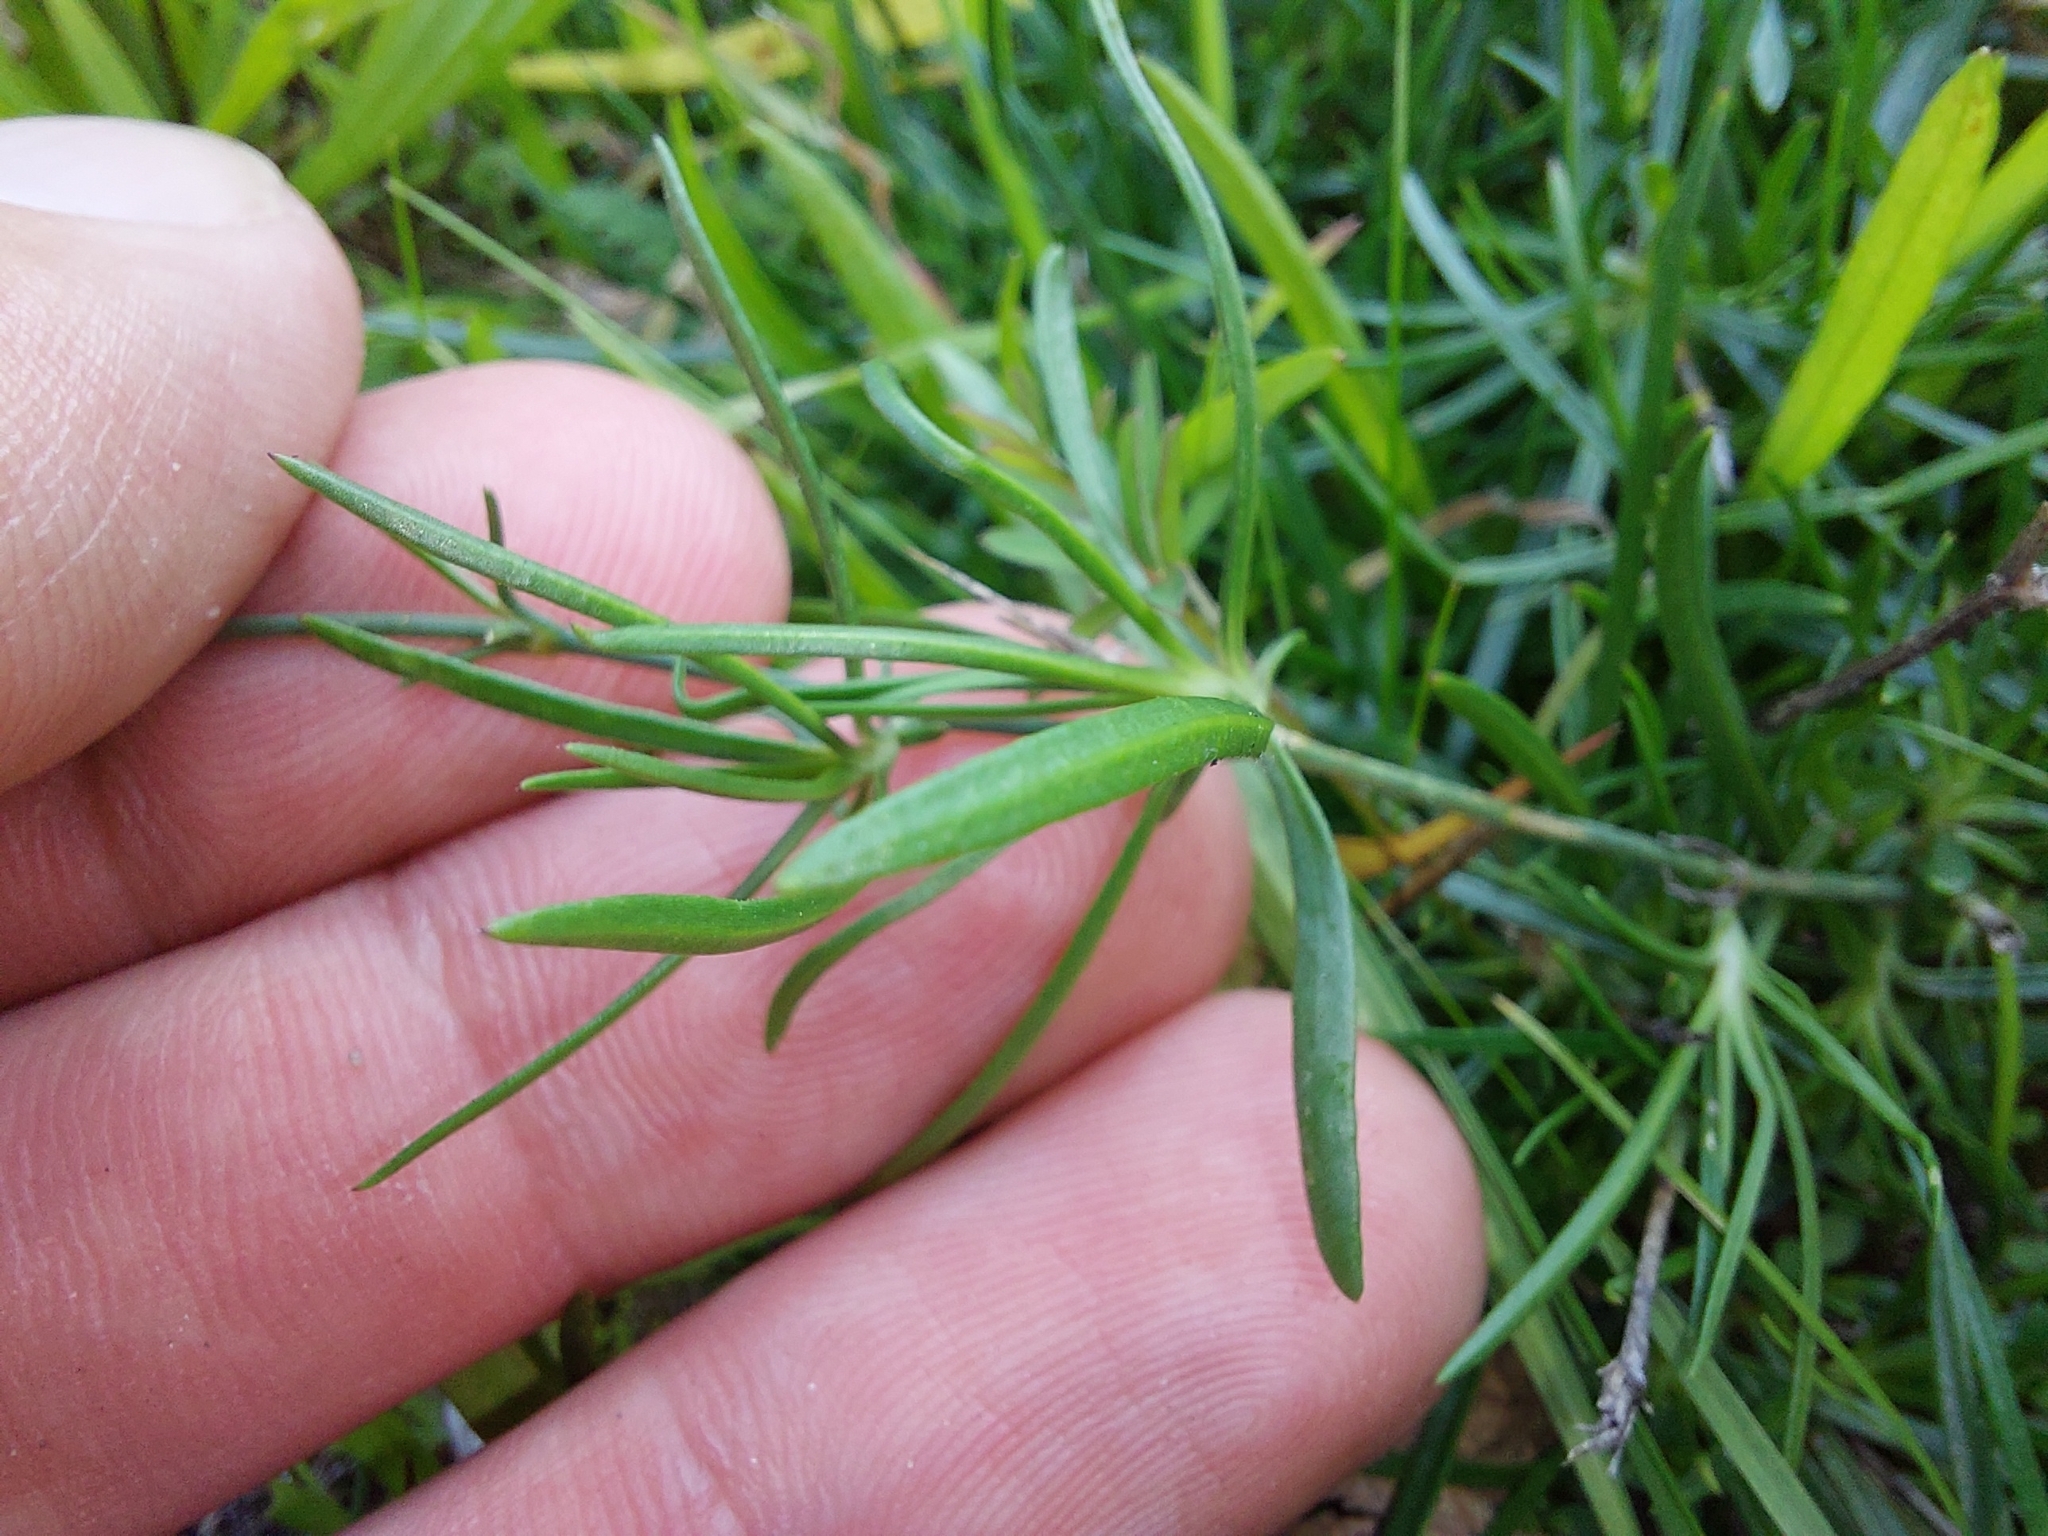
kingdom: Plantae
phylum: Tracheophyta
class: Magnoliopsida
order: Caryophyllales
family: Caryophyllaceae
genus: Petrorhagia
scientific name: Petrorhagia saxifraga
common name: Tunicflower
